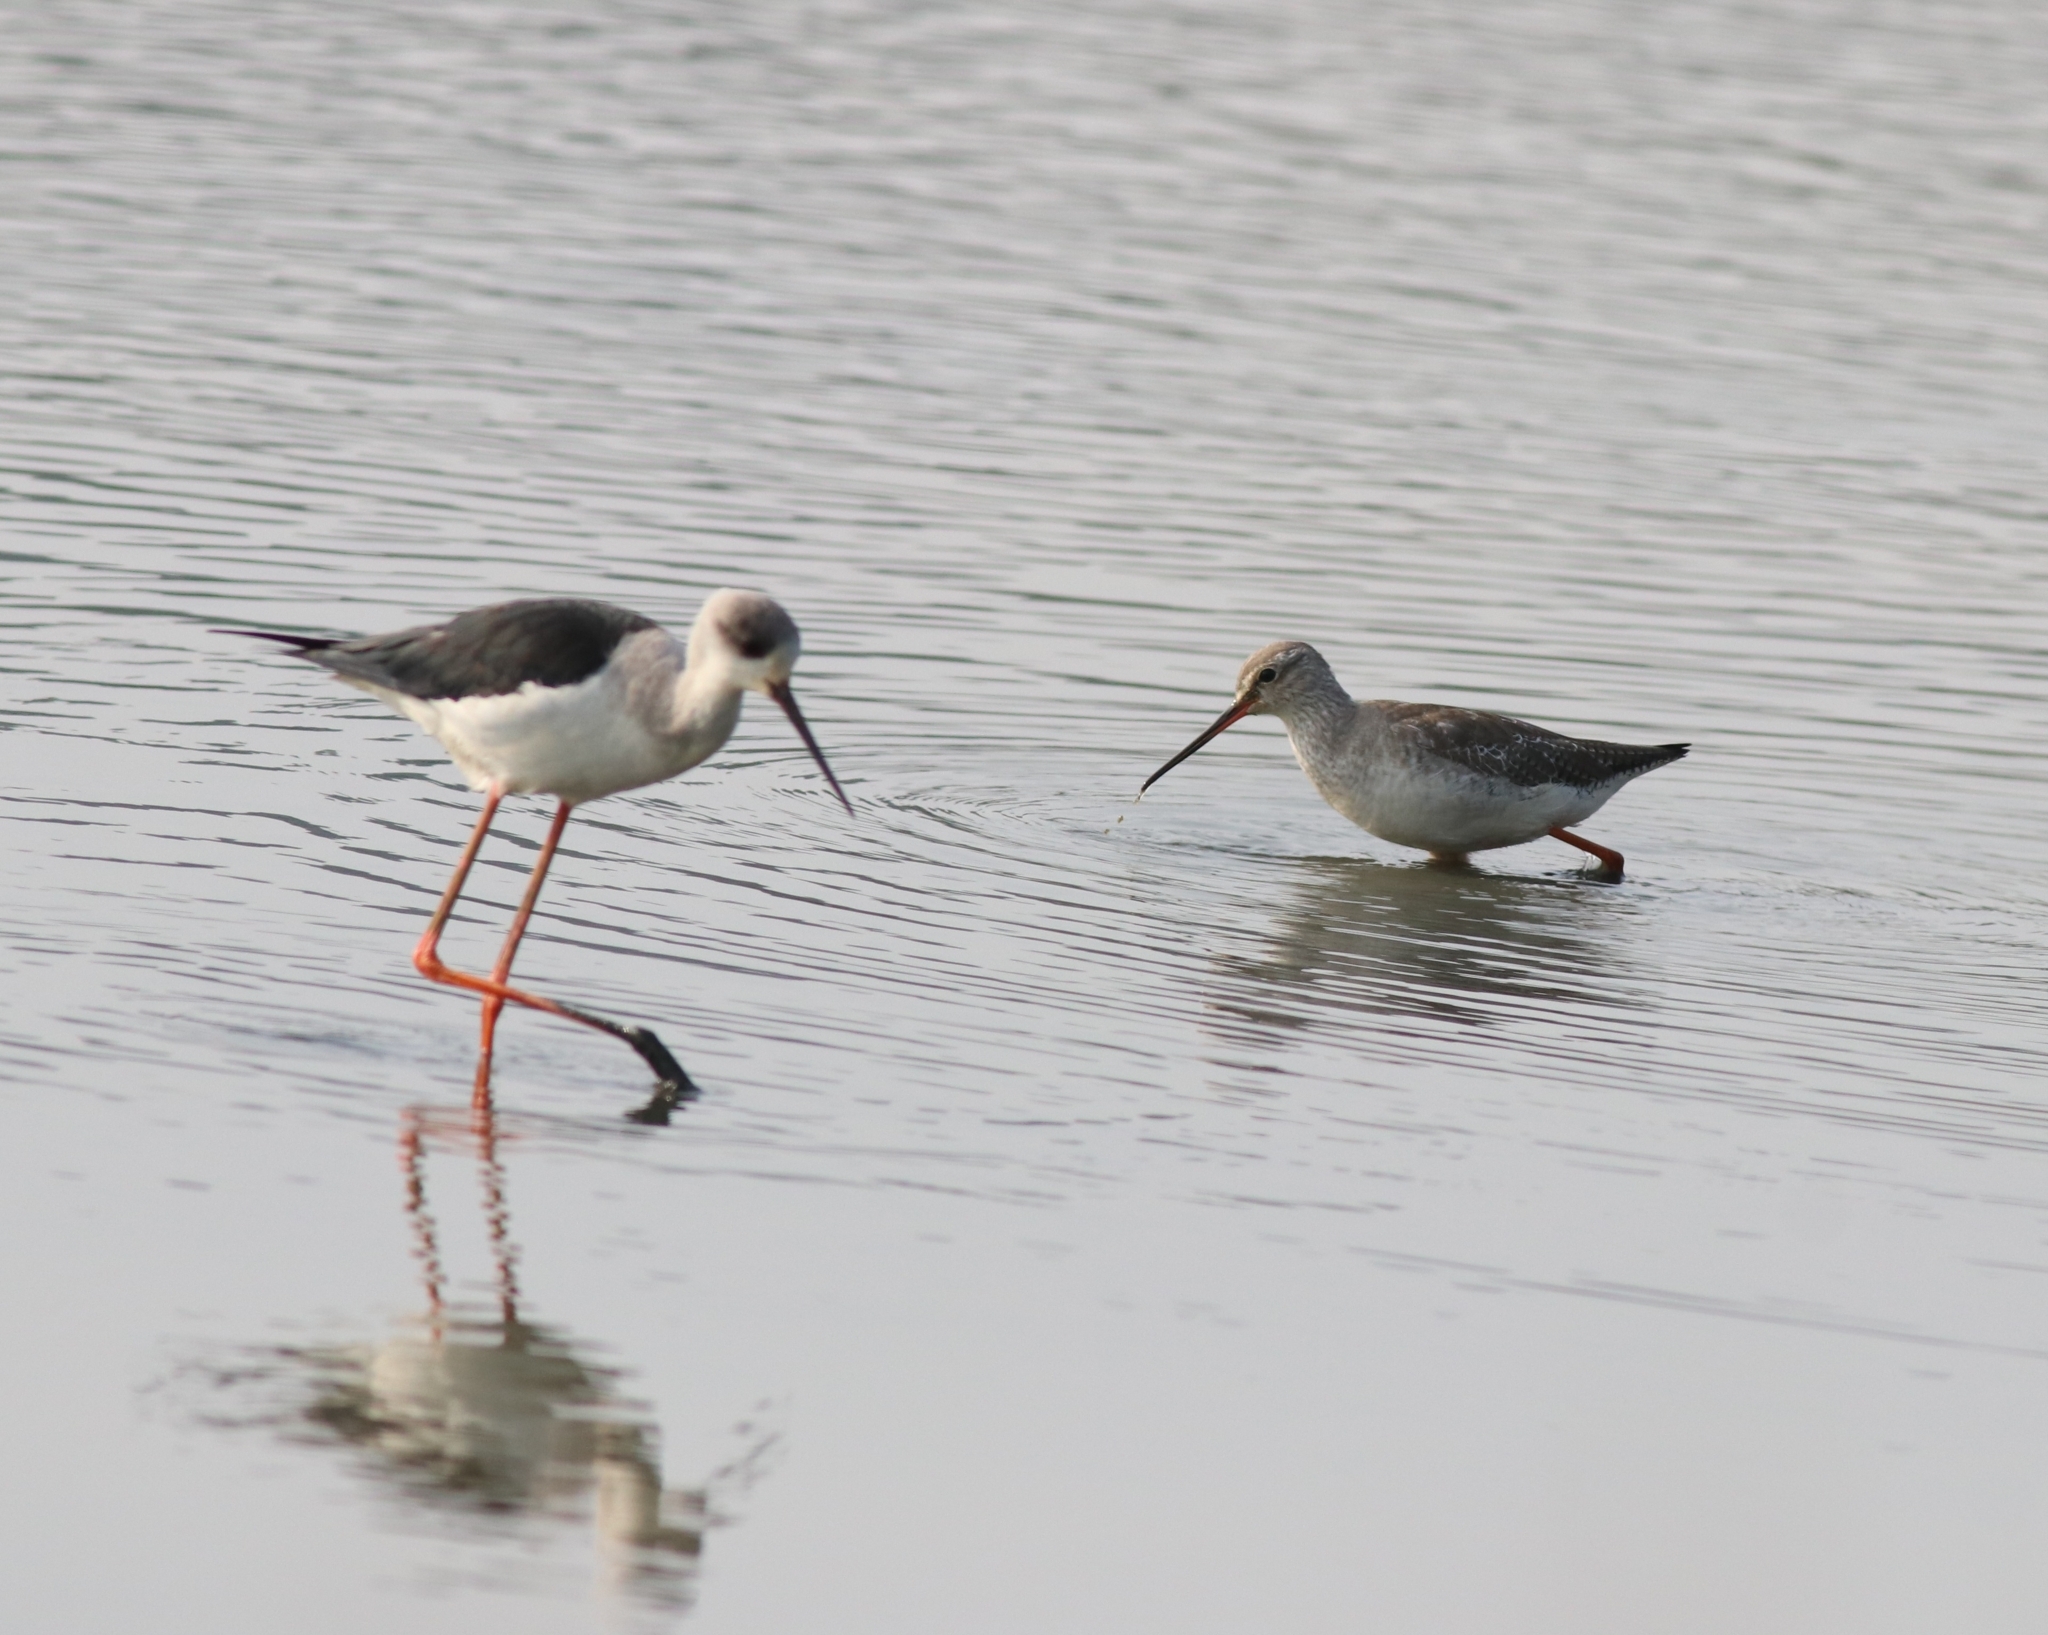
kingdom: Animalia
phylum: Chordata
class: Aves
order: Charadriiformes
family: Scolopacidae
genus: Tringa
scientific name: Tringa erythropus
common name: Spotted redshank
